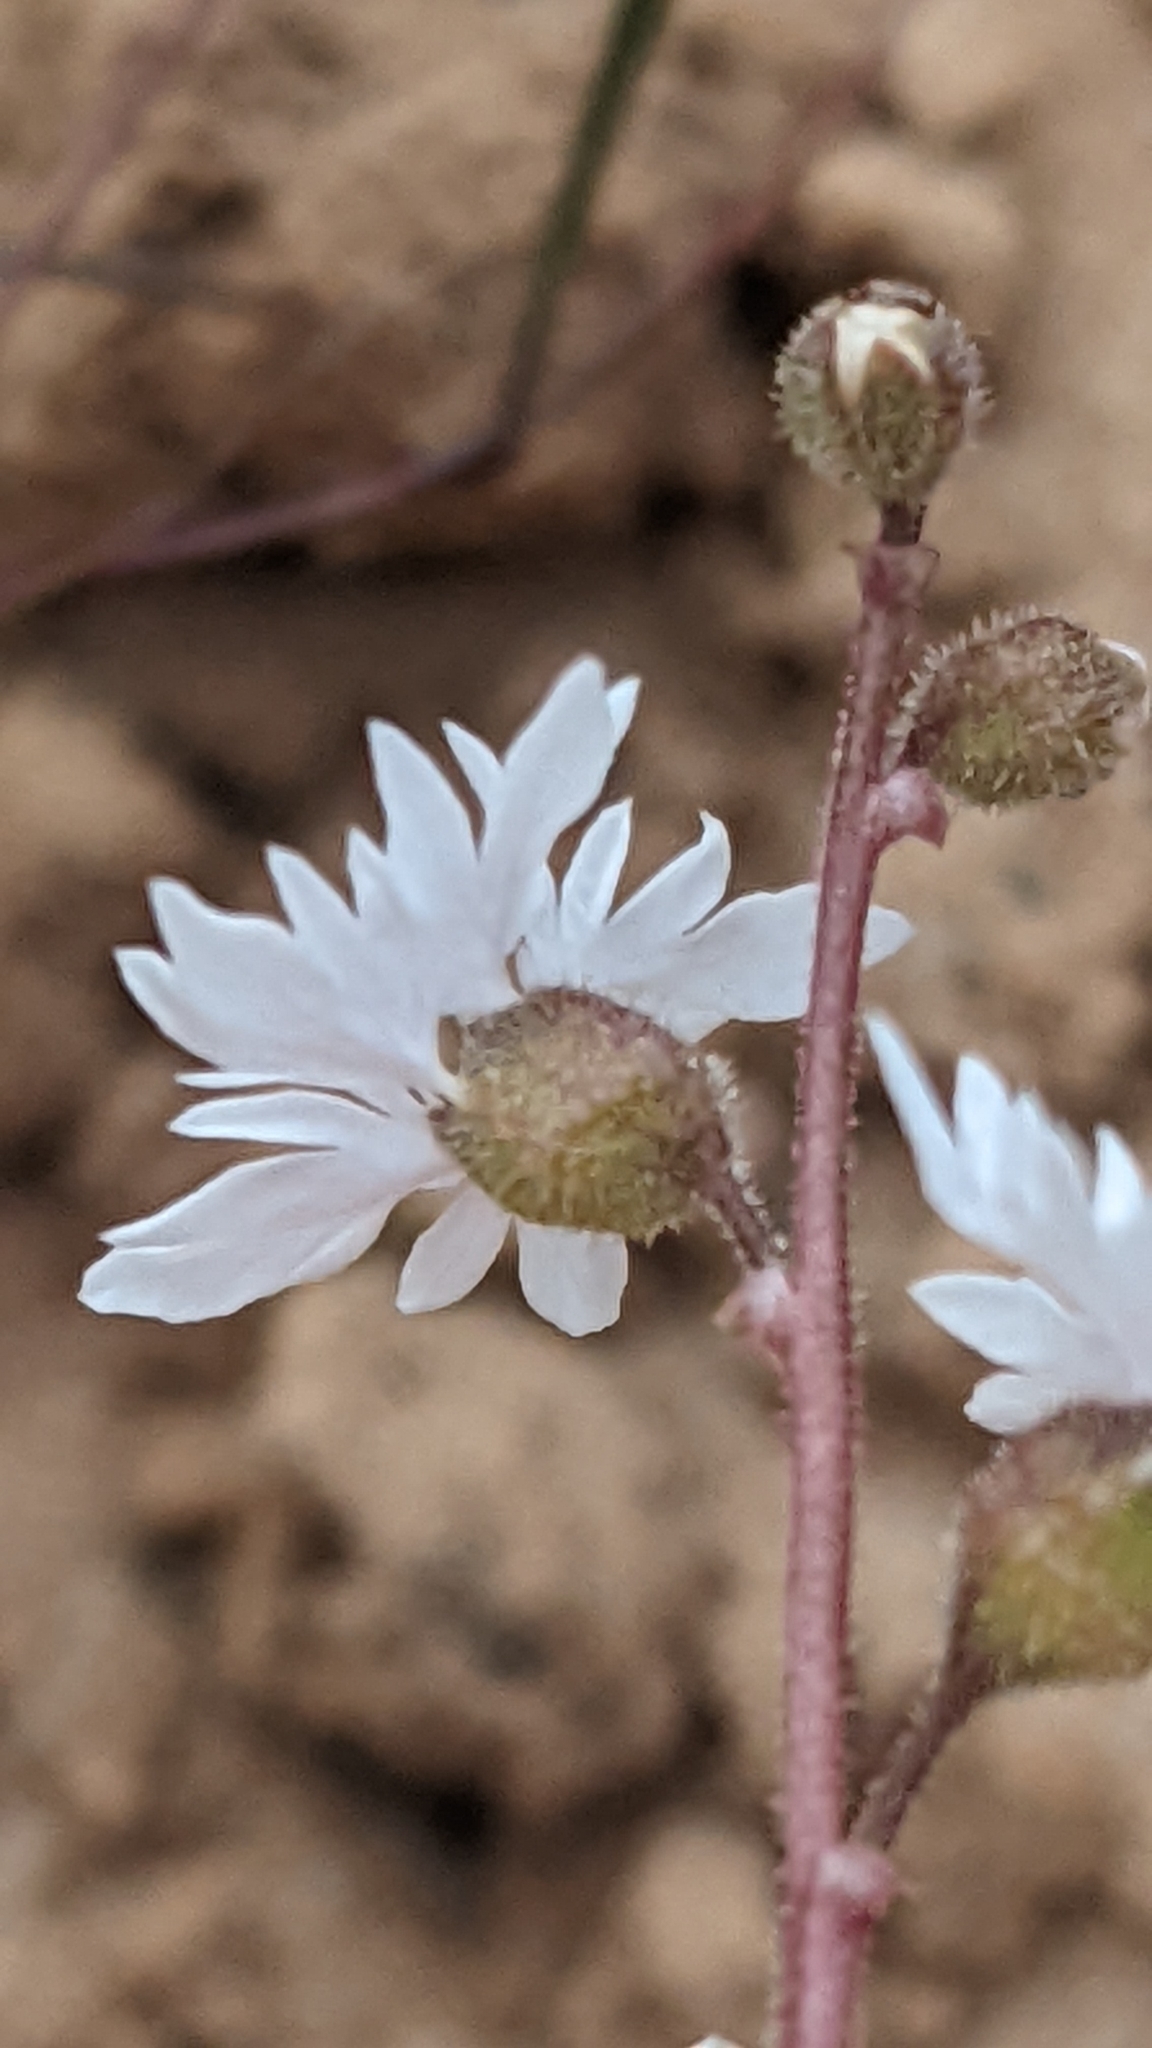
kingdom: Plantae
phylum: Tracheophyta
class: Magnoliopsida
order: Saxifragales
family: Saxifragaceae
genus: Lithophragma
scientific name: Lithophragma tenella
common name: Slender fringe-cup
